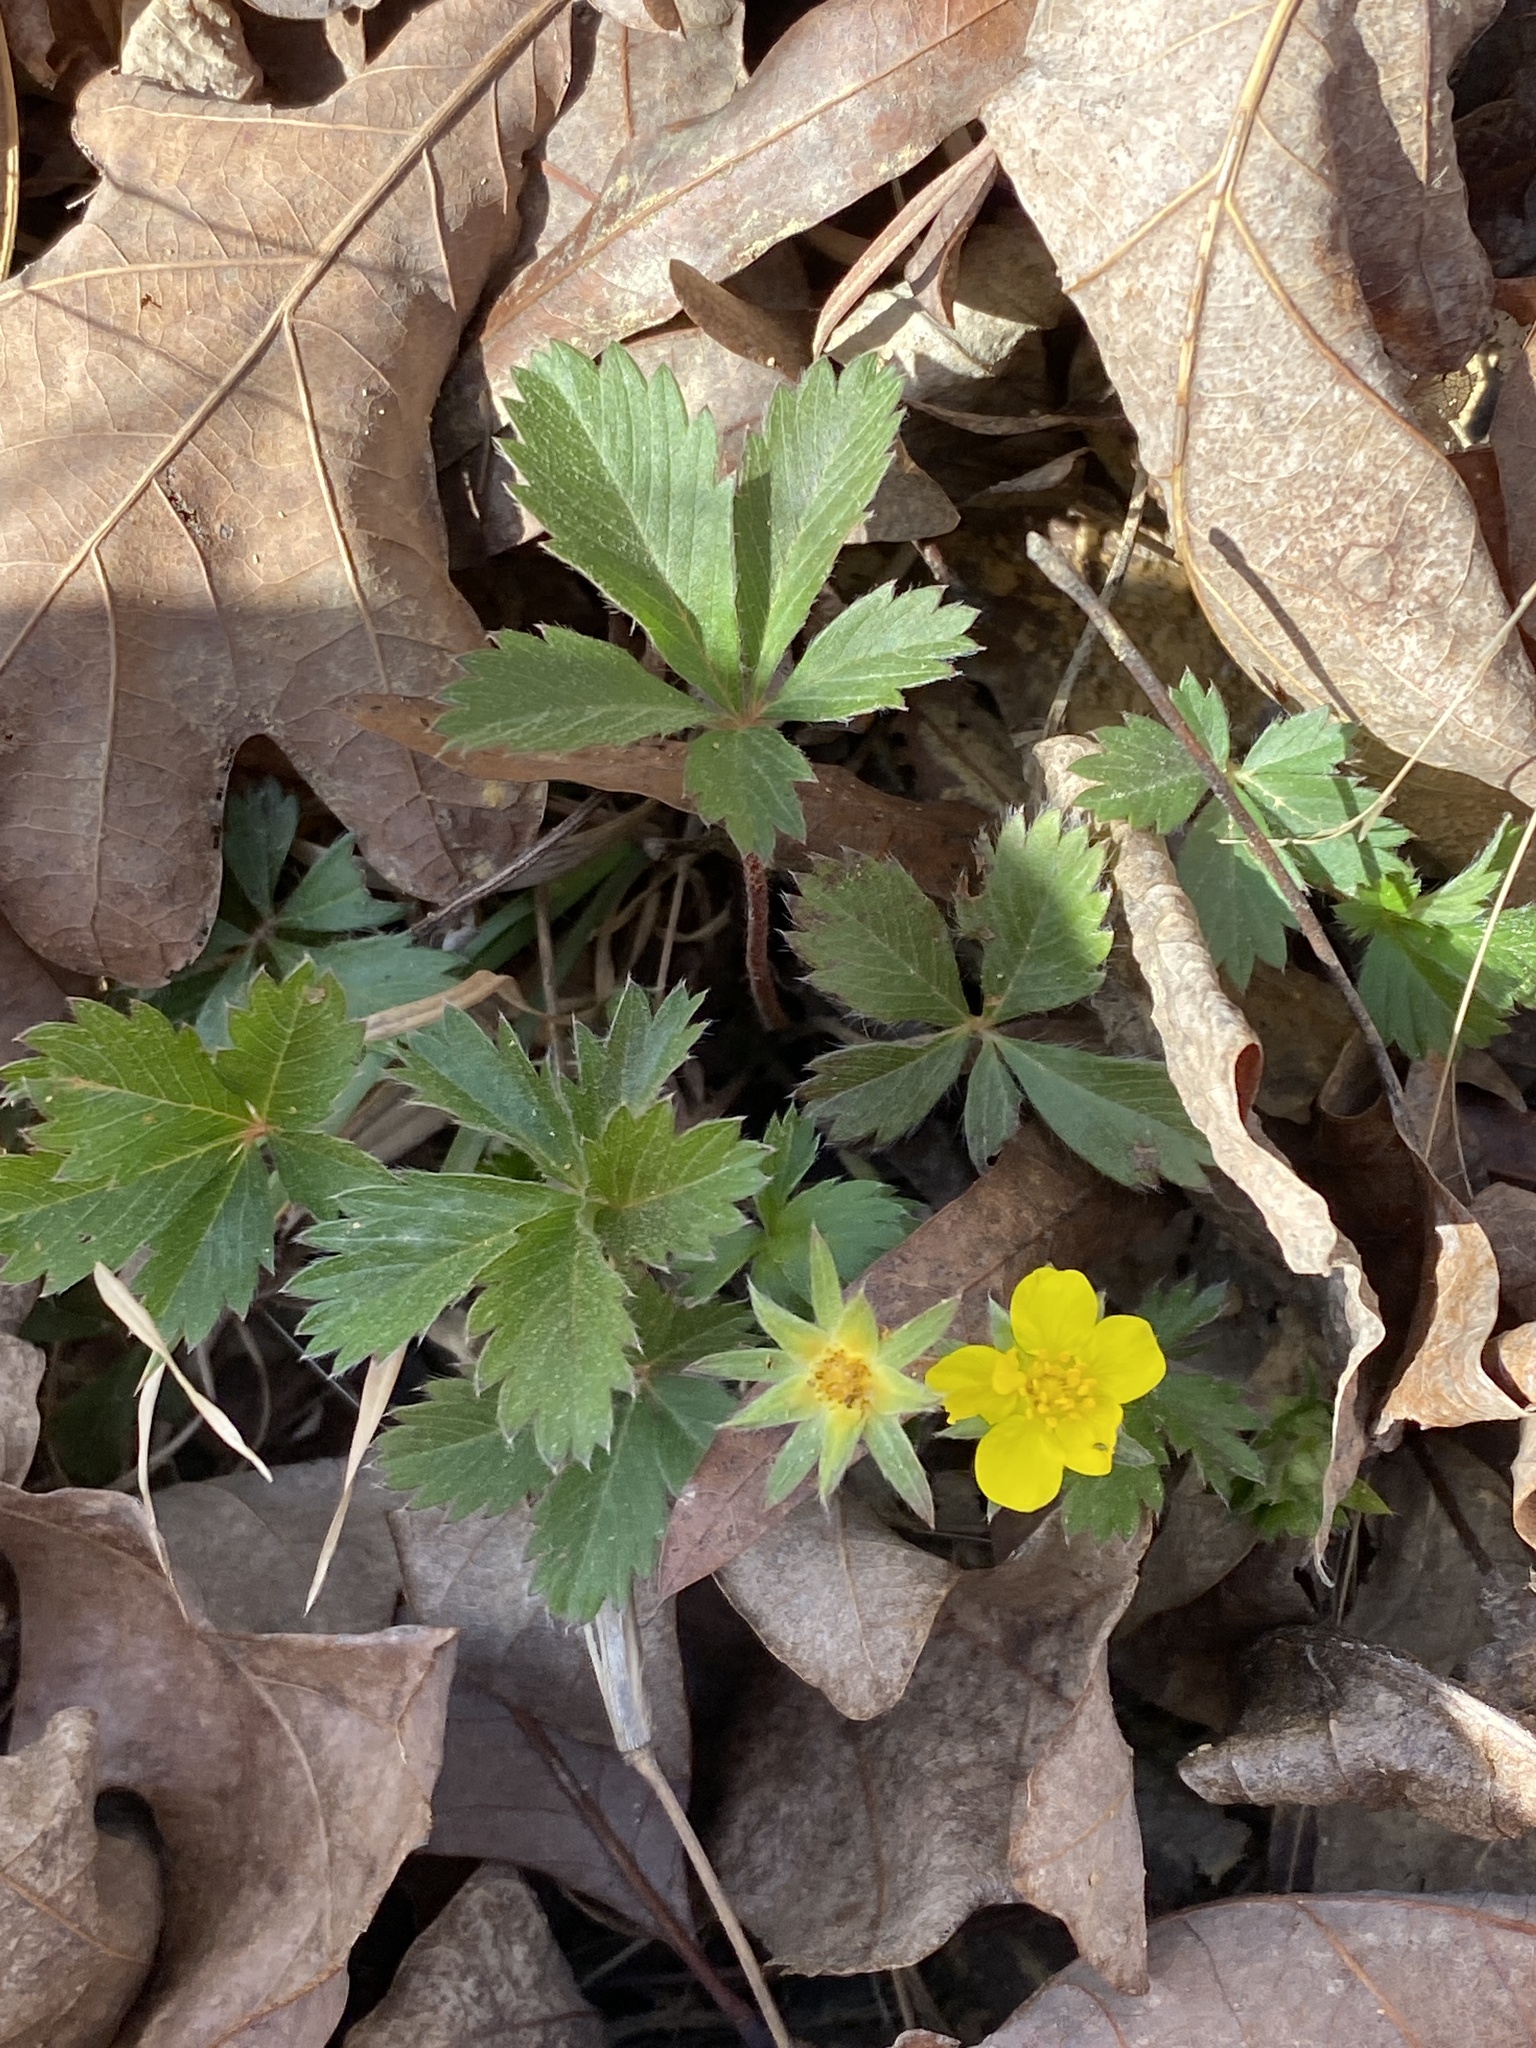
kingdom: Plantae
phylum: Tracheophyta
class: Magnoliopsida
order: Rosales
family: Rosaceae
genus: Potentilla
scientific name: Potentilla canadensis
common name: Canada cinquefoil
